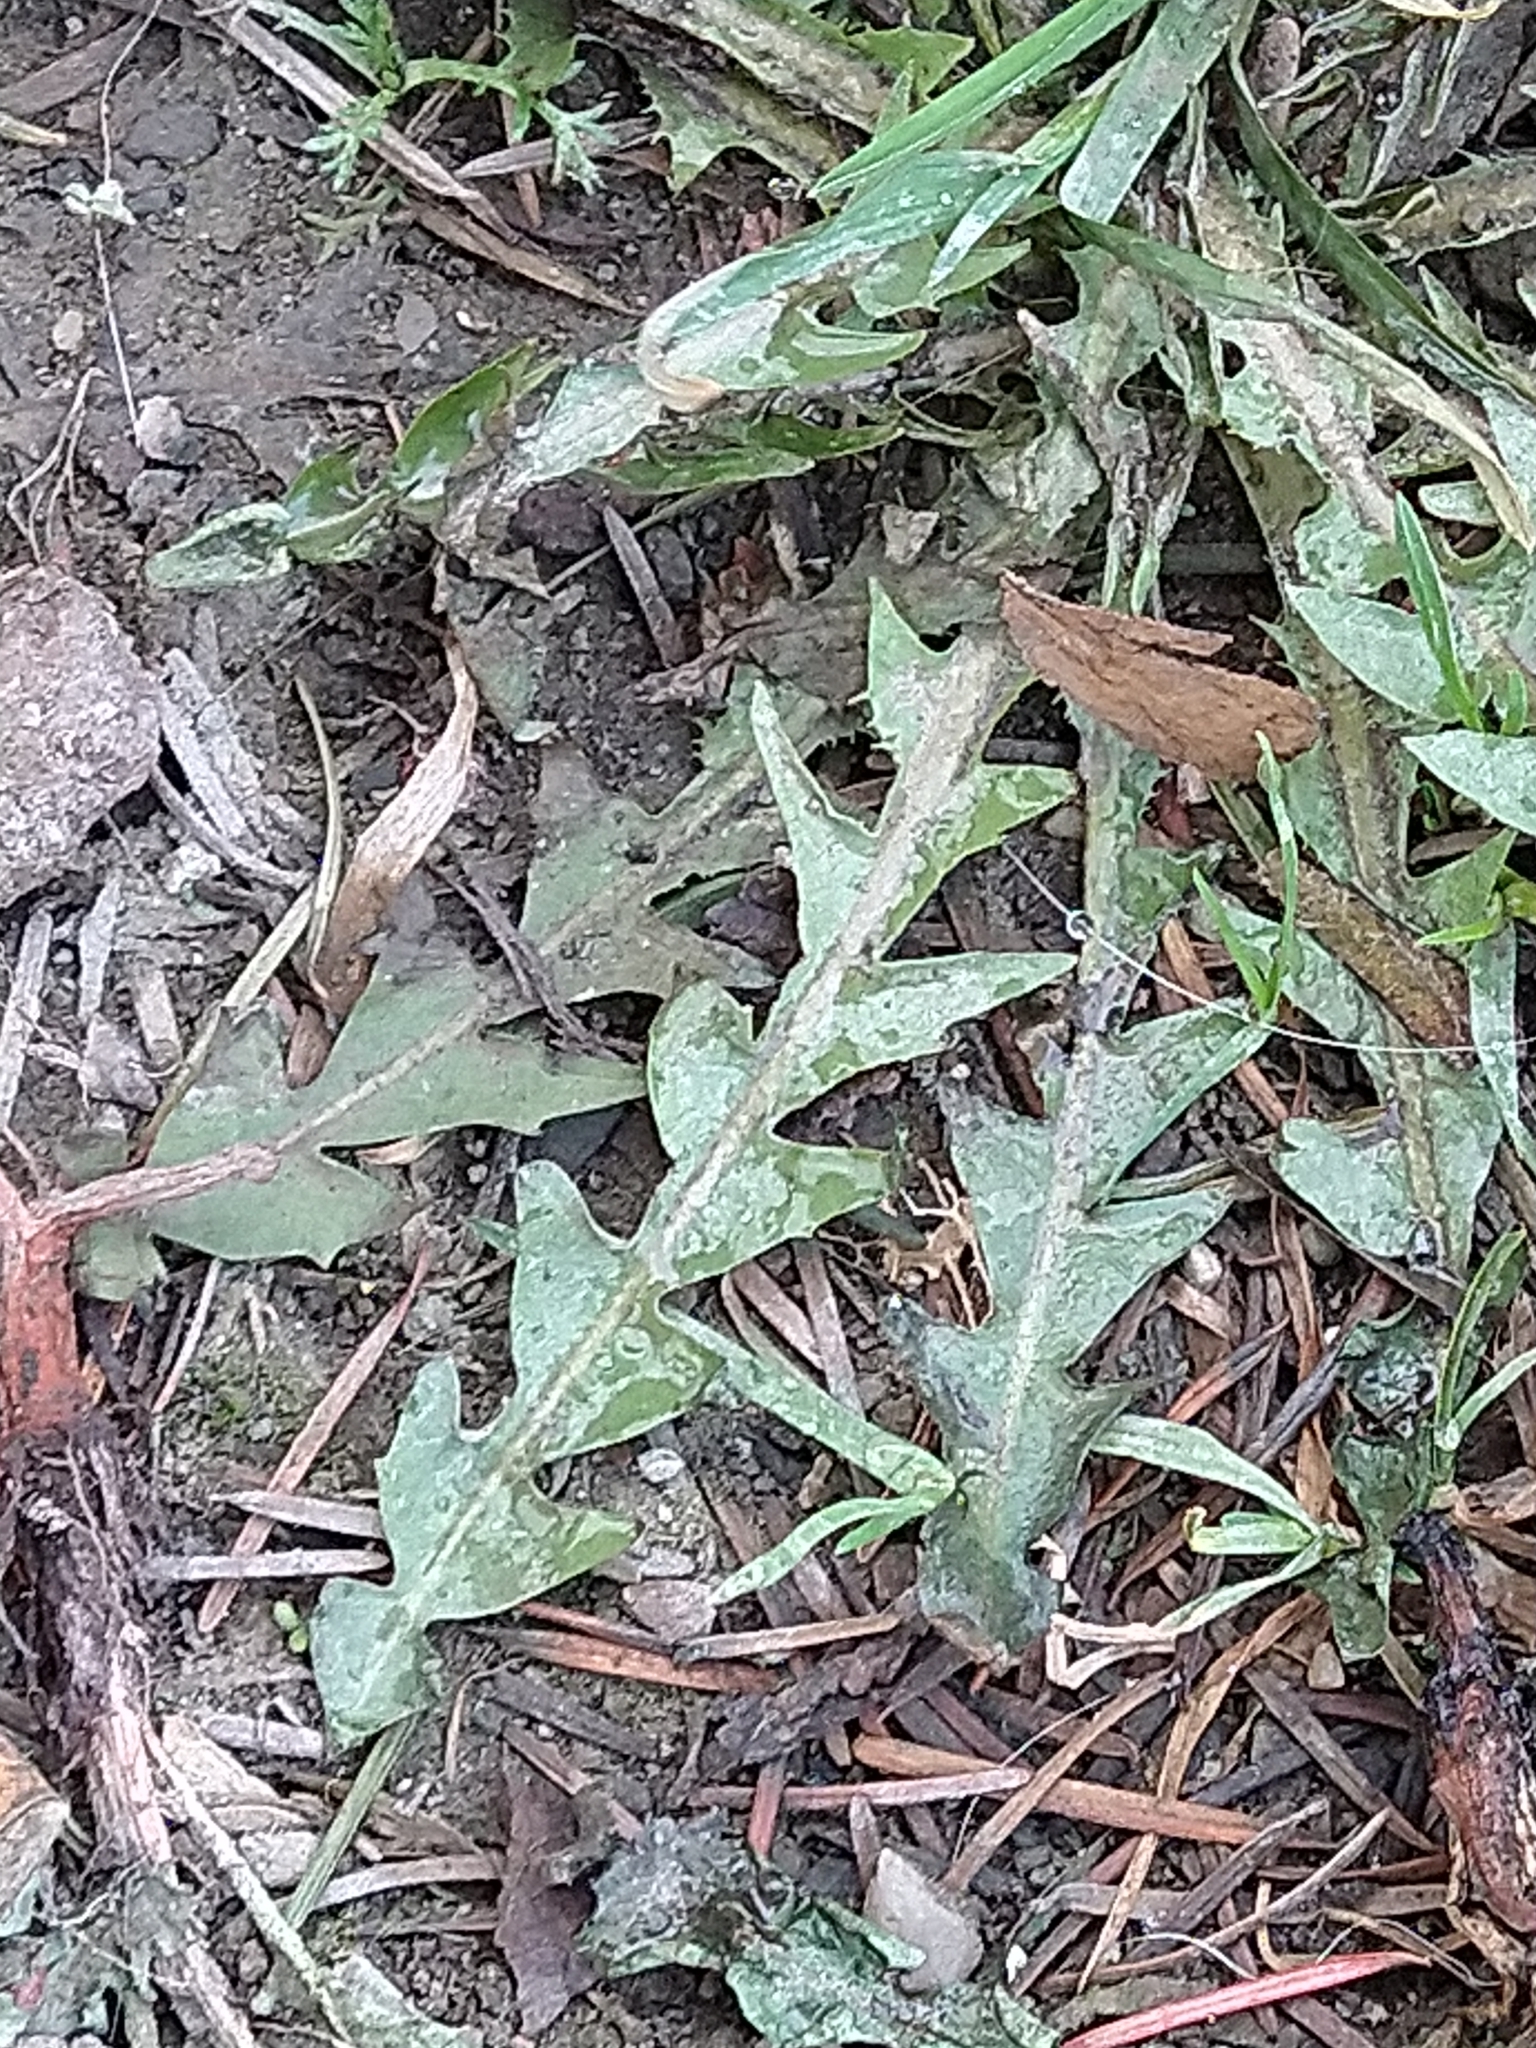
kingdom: Plantae
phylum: Tracheophyta
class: Magnoliopsida
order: Asterales
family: Asteraceae
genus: Taraxacum
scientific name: Taraxacum officinale
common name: Common dandelion
